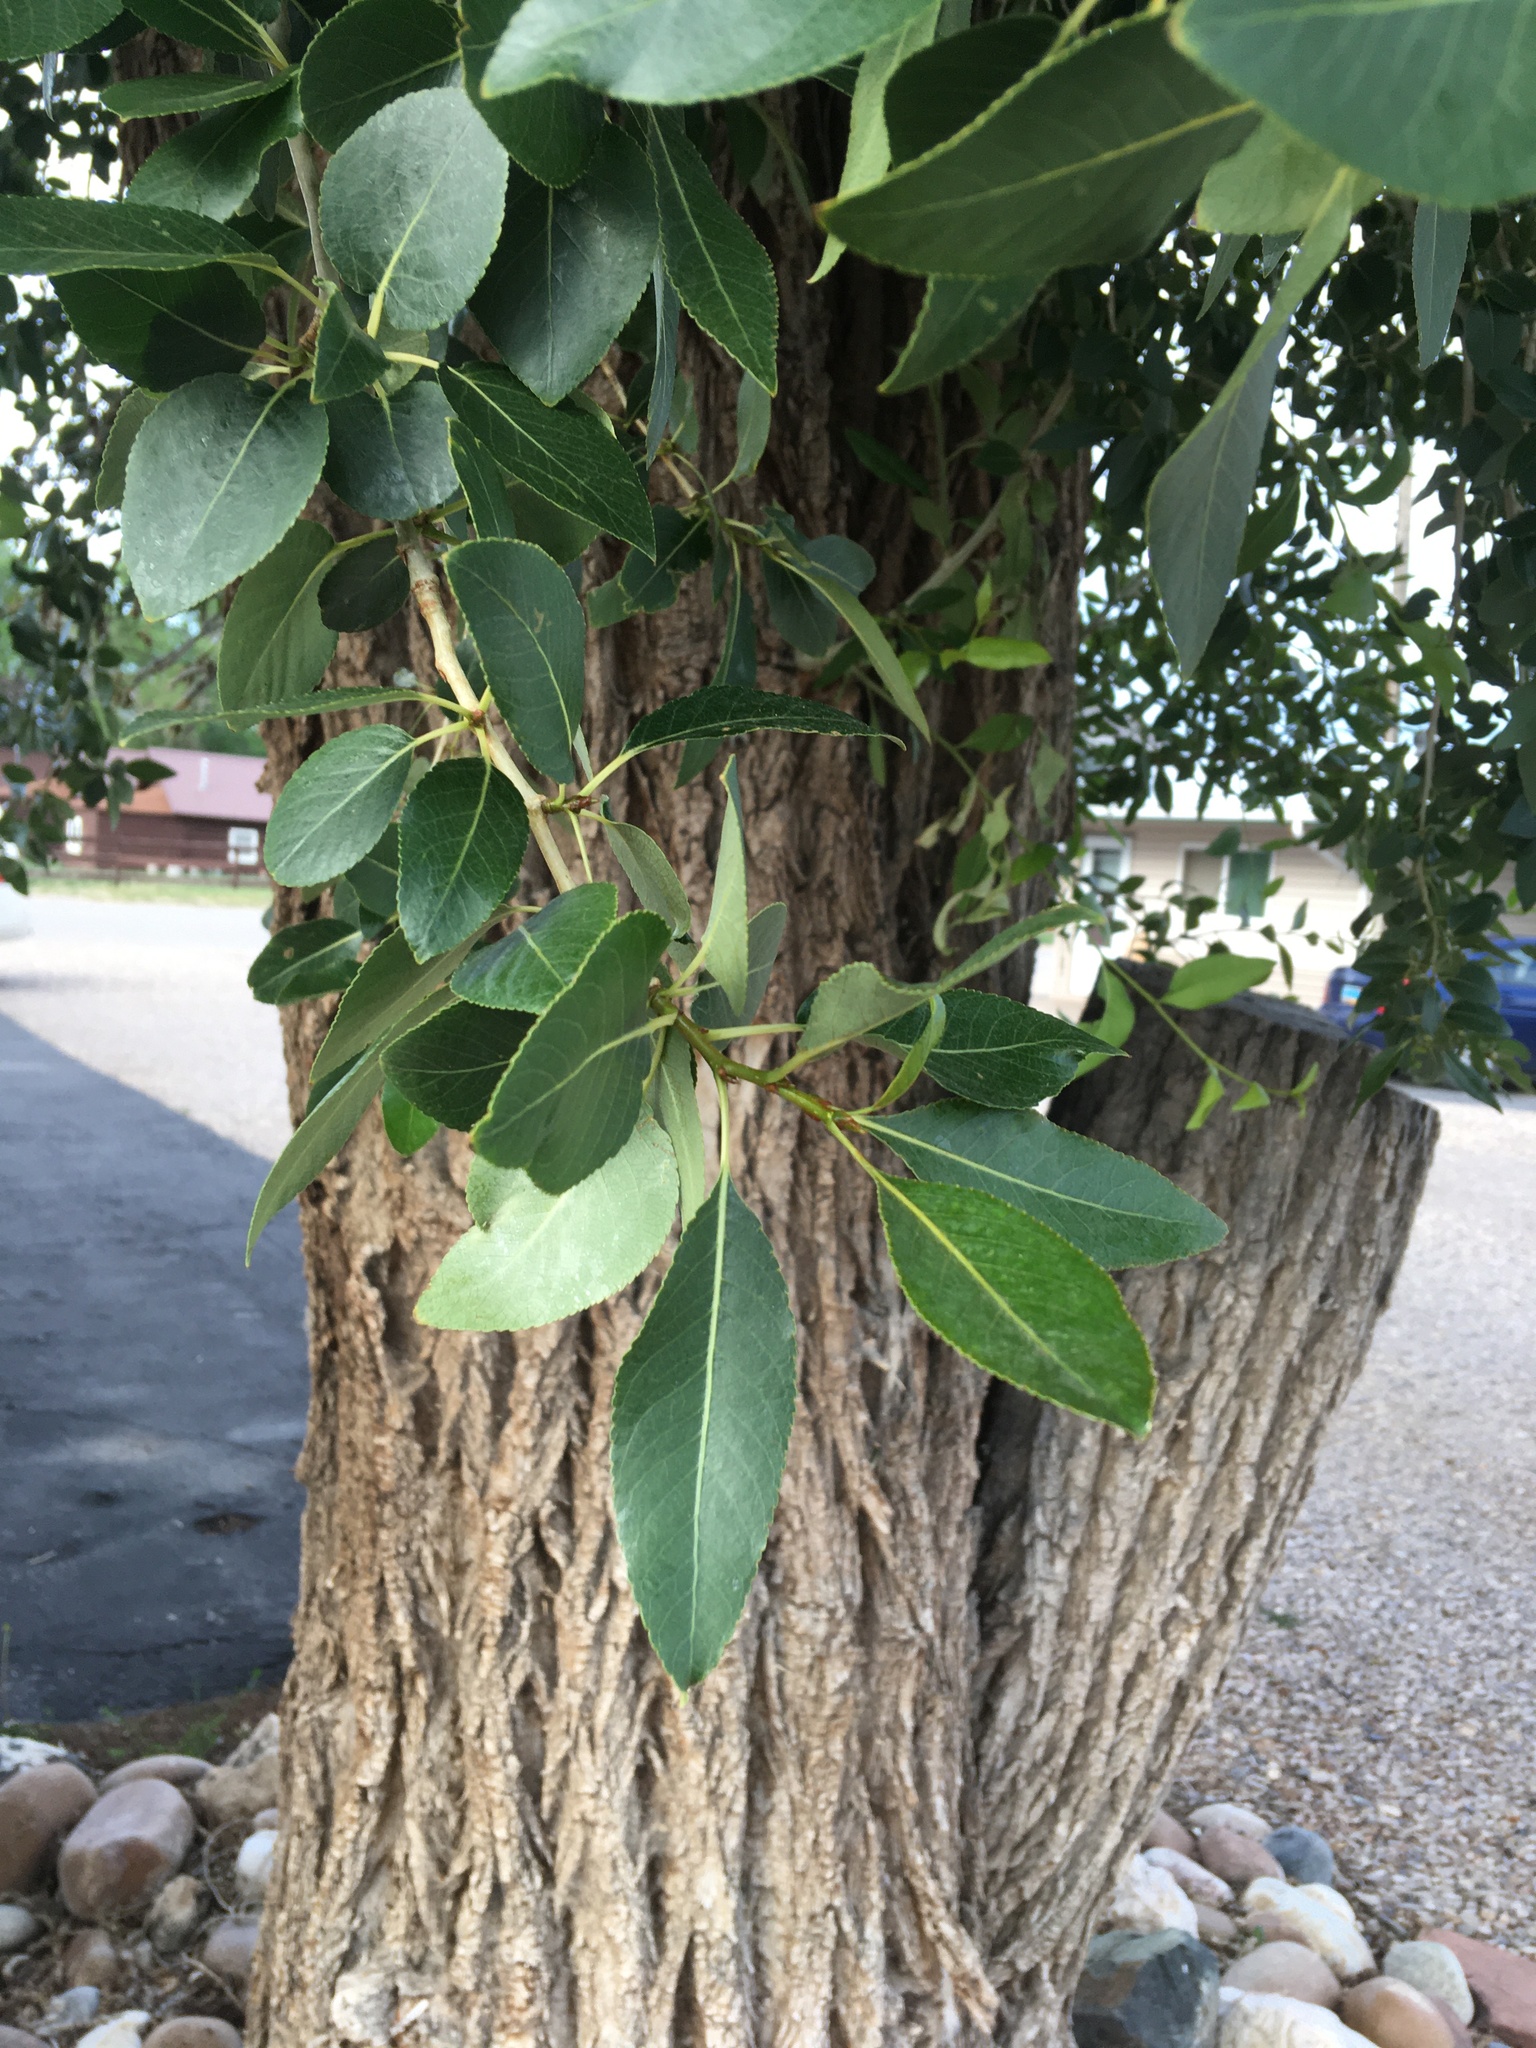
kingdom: Plantae
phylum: Tracheophyta
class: Magnoliopsida
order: Malpighiales
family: Salicaceae
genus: Populus
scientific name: Populus angustifolia
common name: Willow cottonwood
